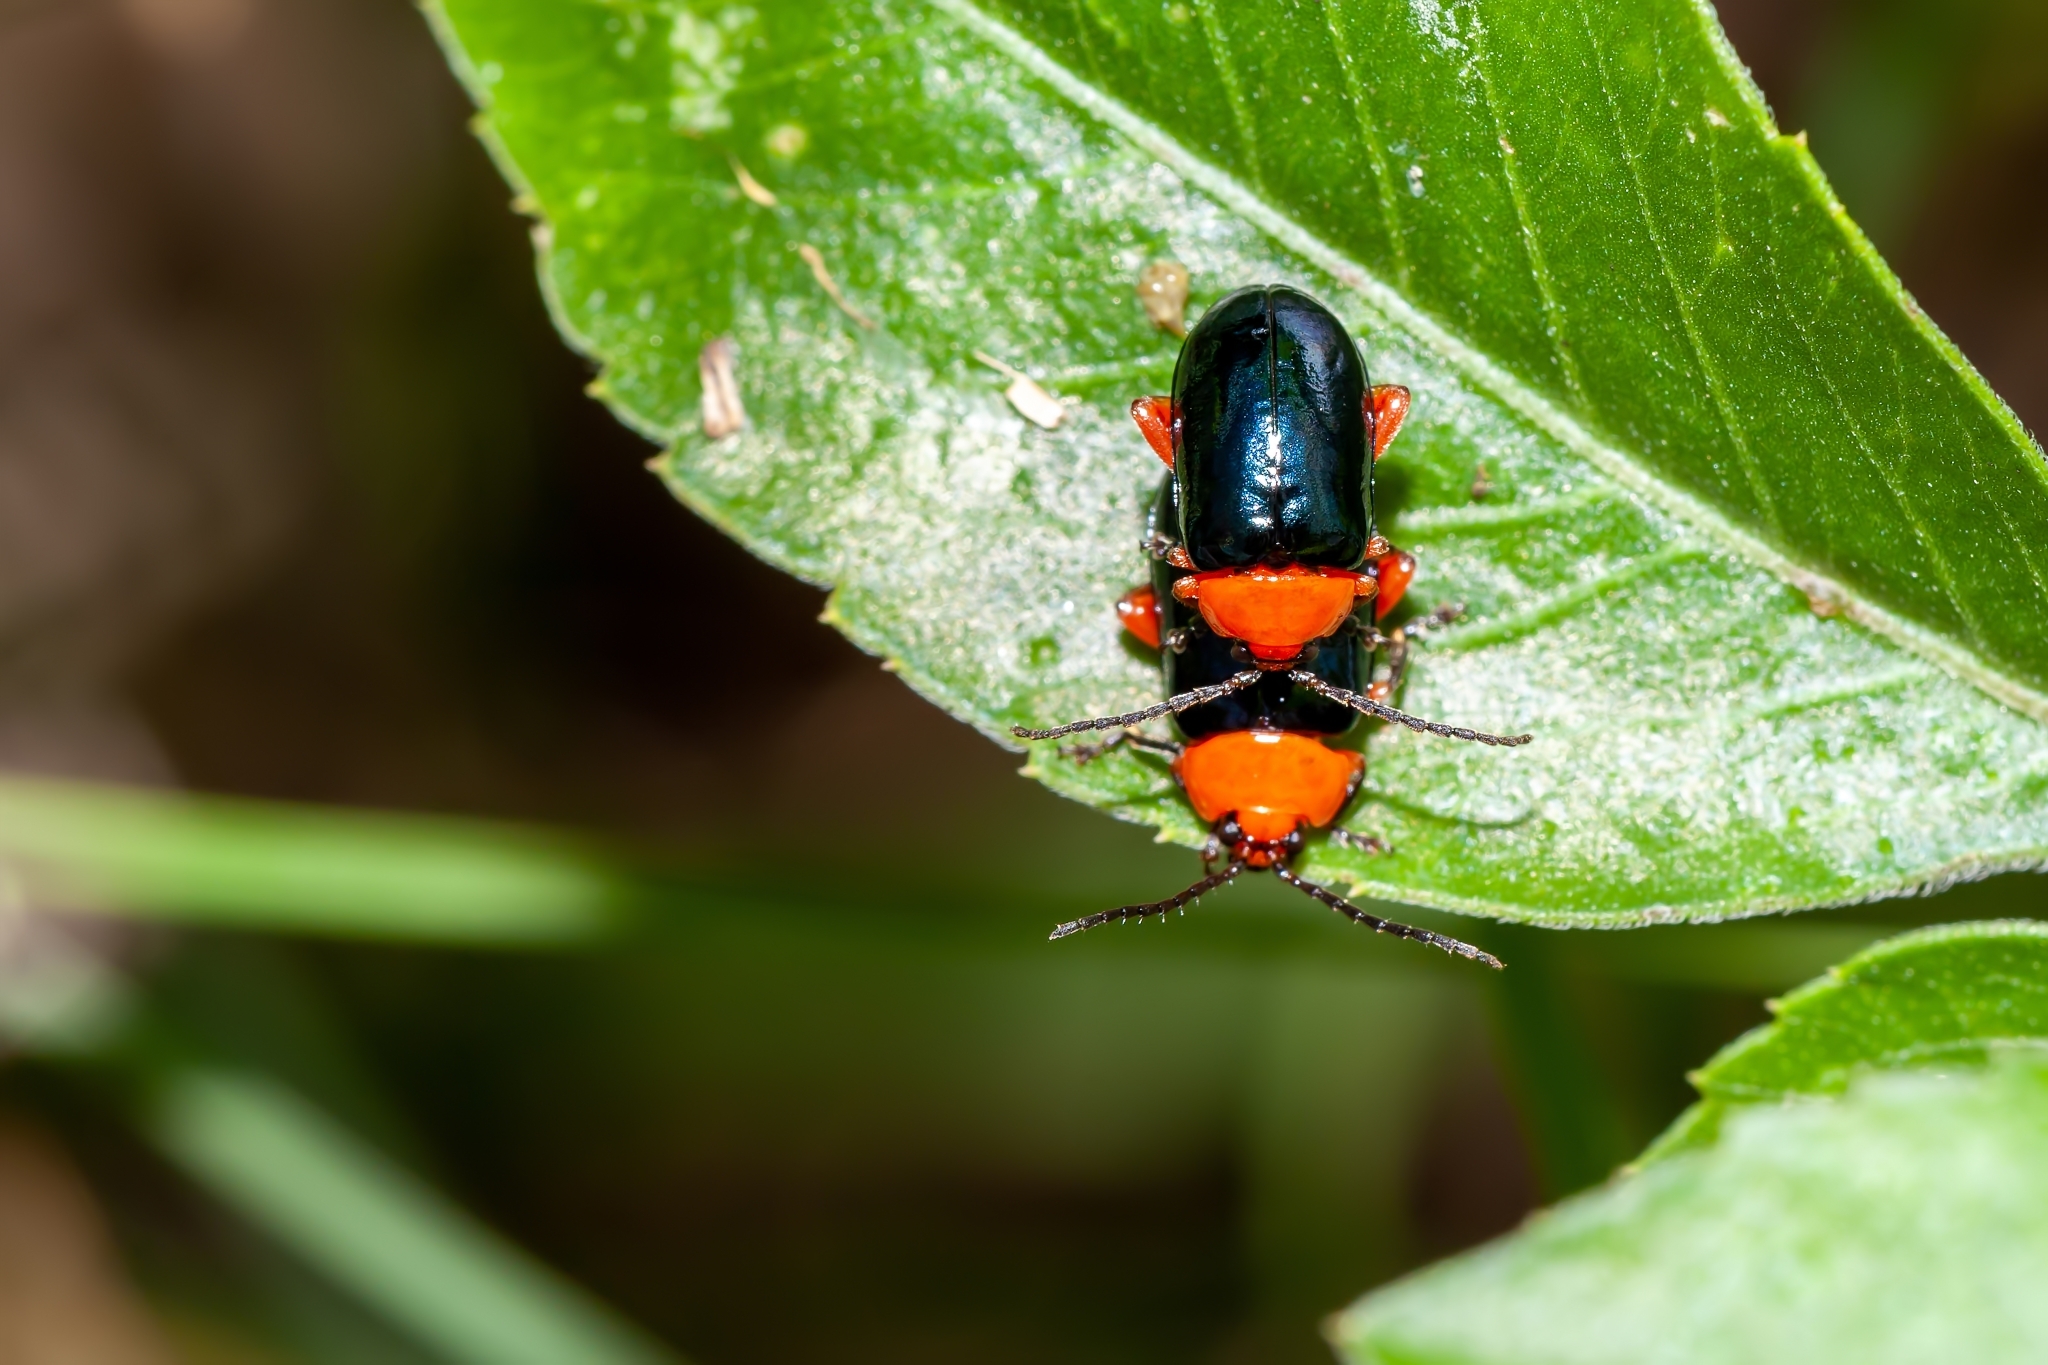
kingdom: Animalia
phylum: Arthropoda
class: Insecta
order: Coleoptera
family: Chrysomelidae
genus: Asphaera
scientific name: Asphaera lustrans
